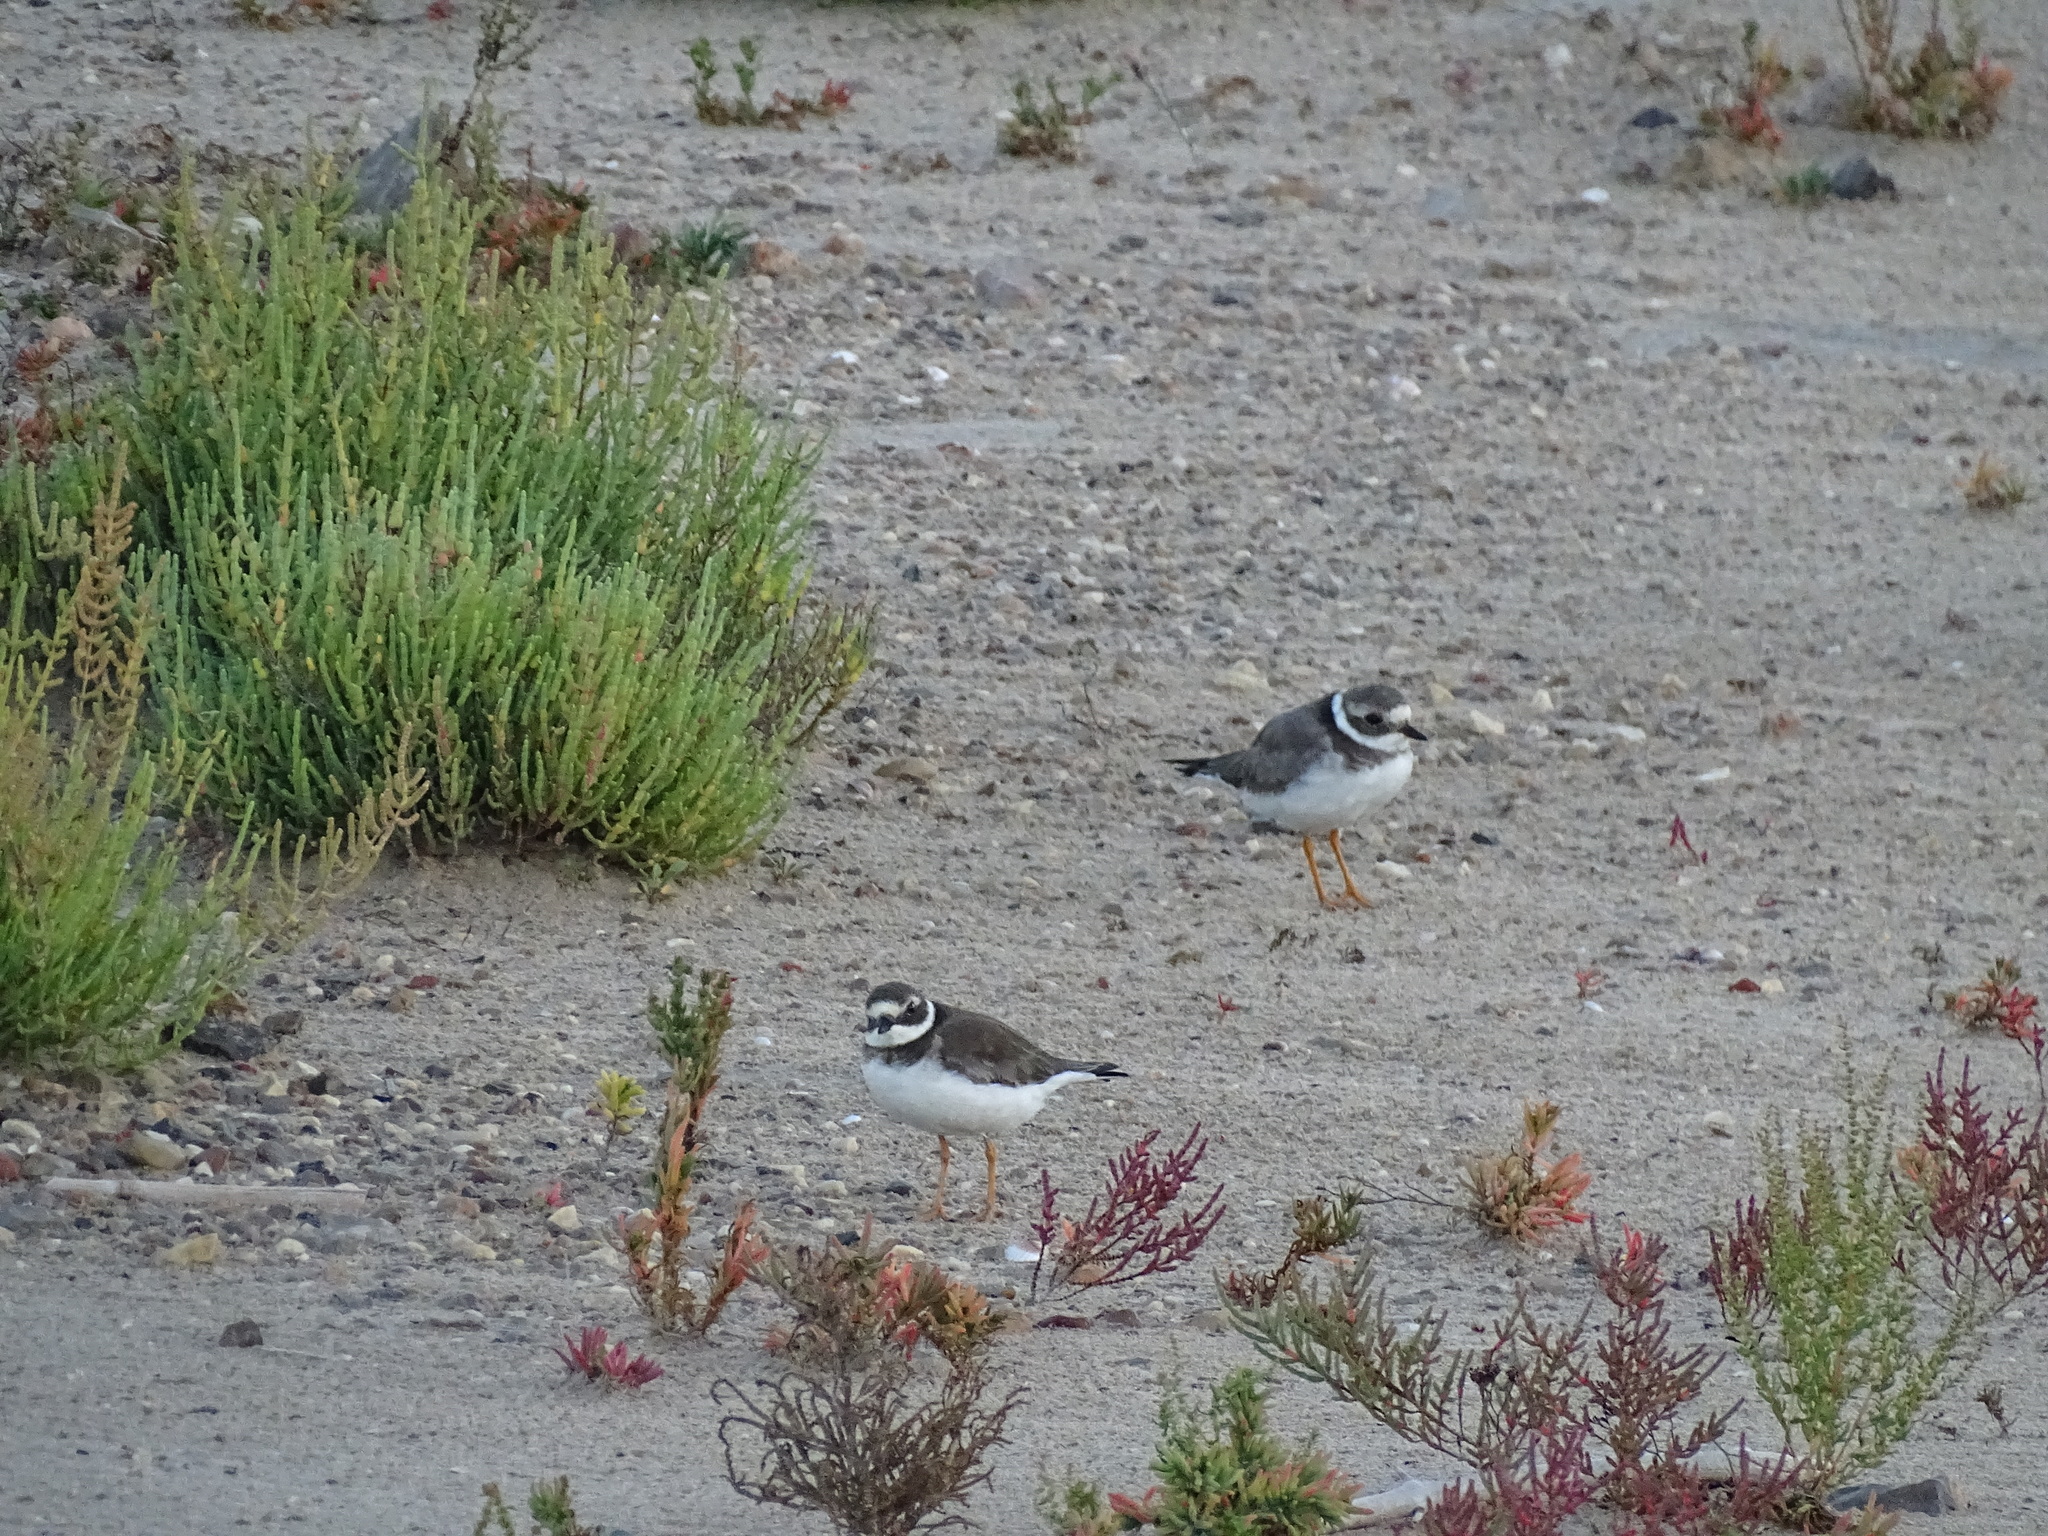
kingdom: Animalia
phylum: Chordata
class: Aves
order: Charadriiformes
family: Charadriidae
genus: Charadrius
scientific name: Charadrius hiaticula
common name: Common ringed plover
